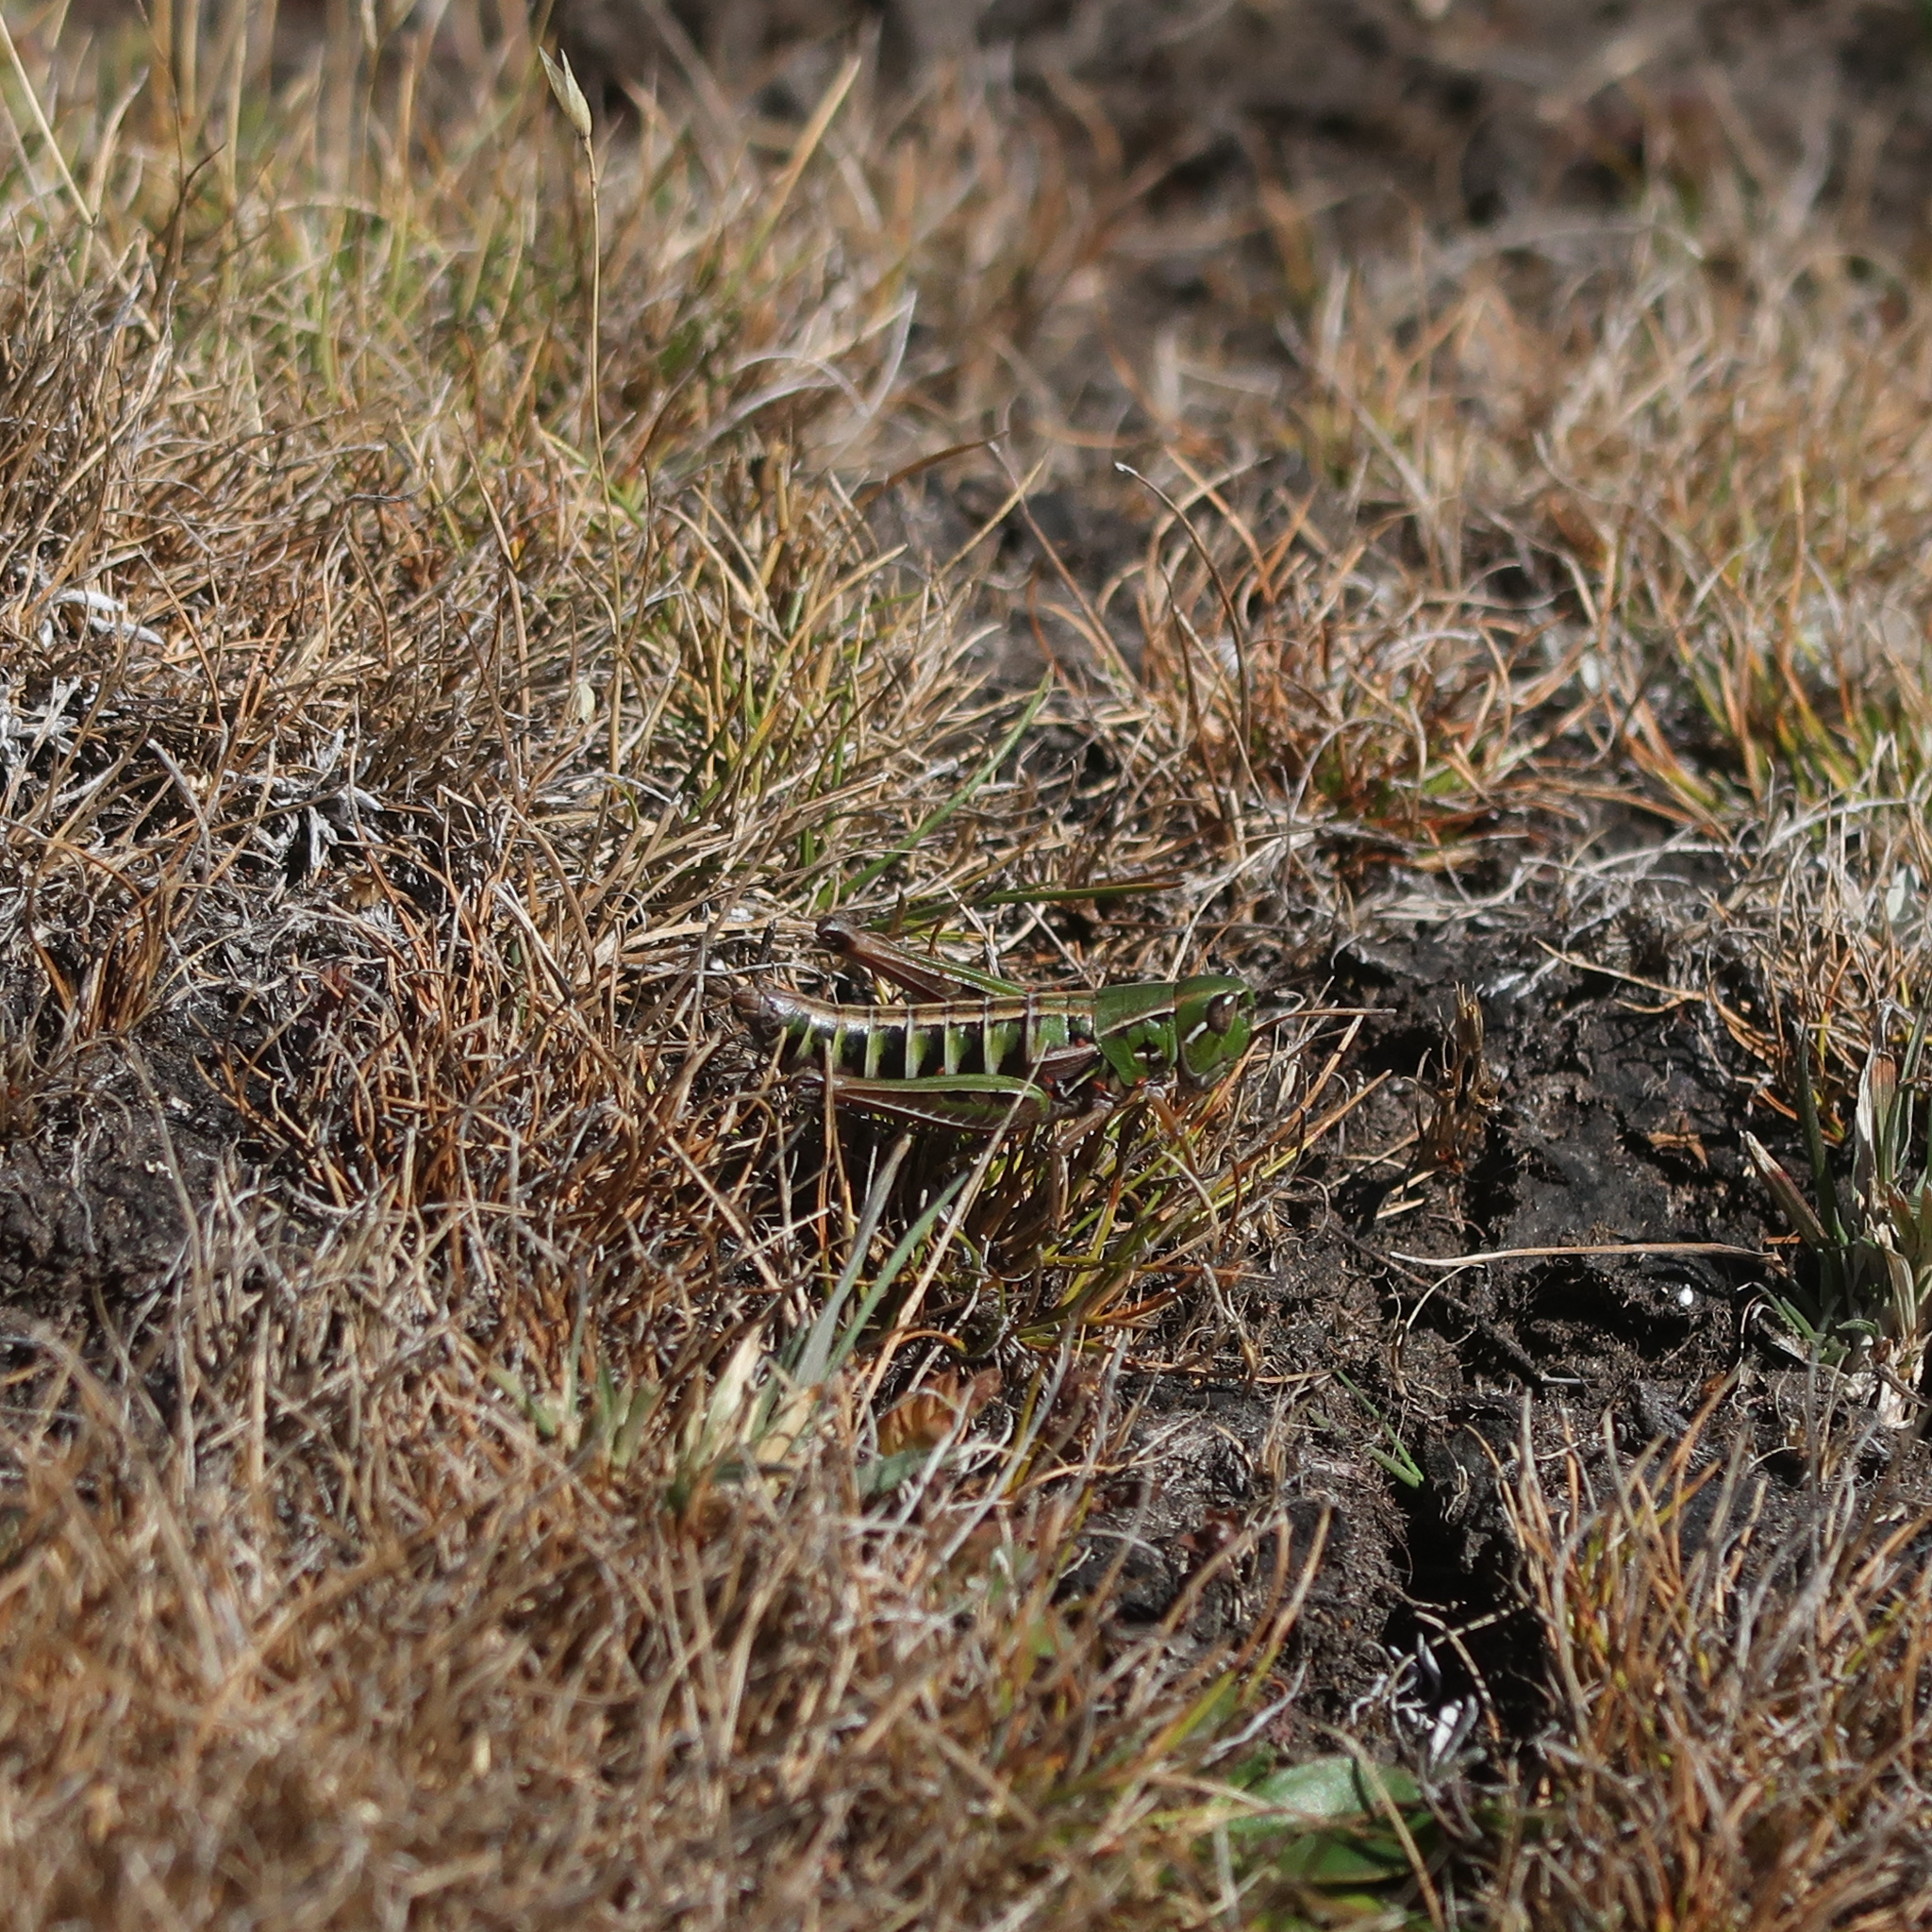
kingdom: Animalia
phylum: Arthropoda
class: Insecta
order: Orthoptera
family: Acrididae
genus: Kosciuscola
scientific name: Kosciuscola tasmanicus
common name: Tasmanian skyhopper
